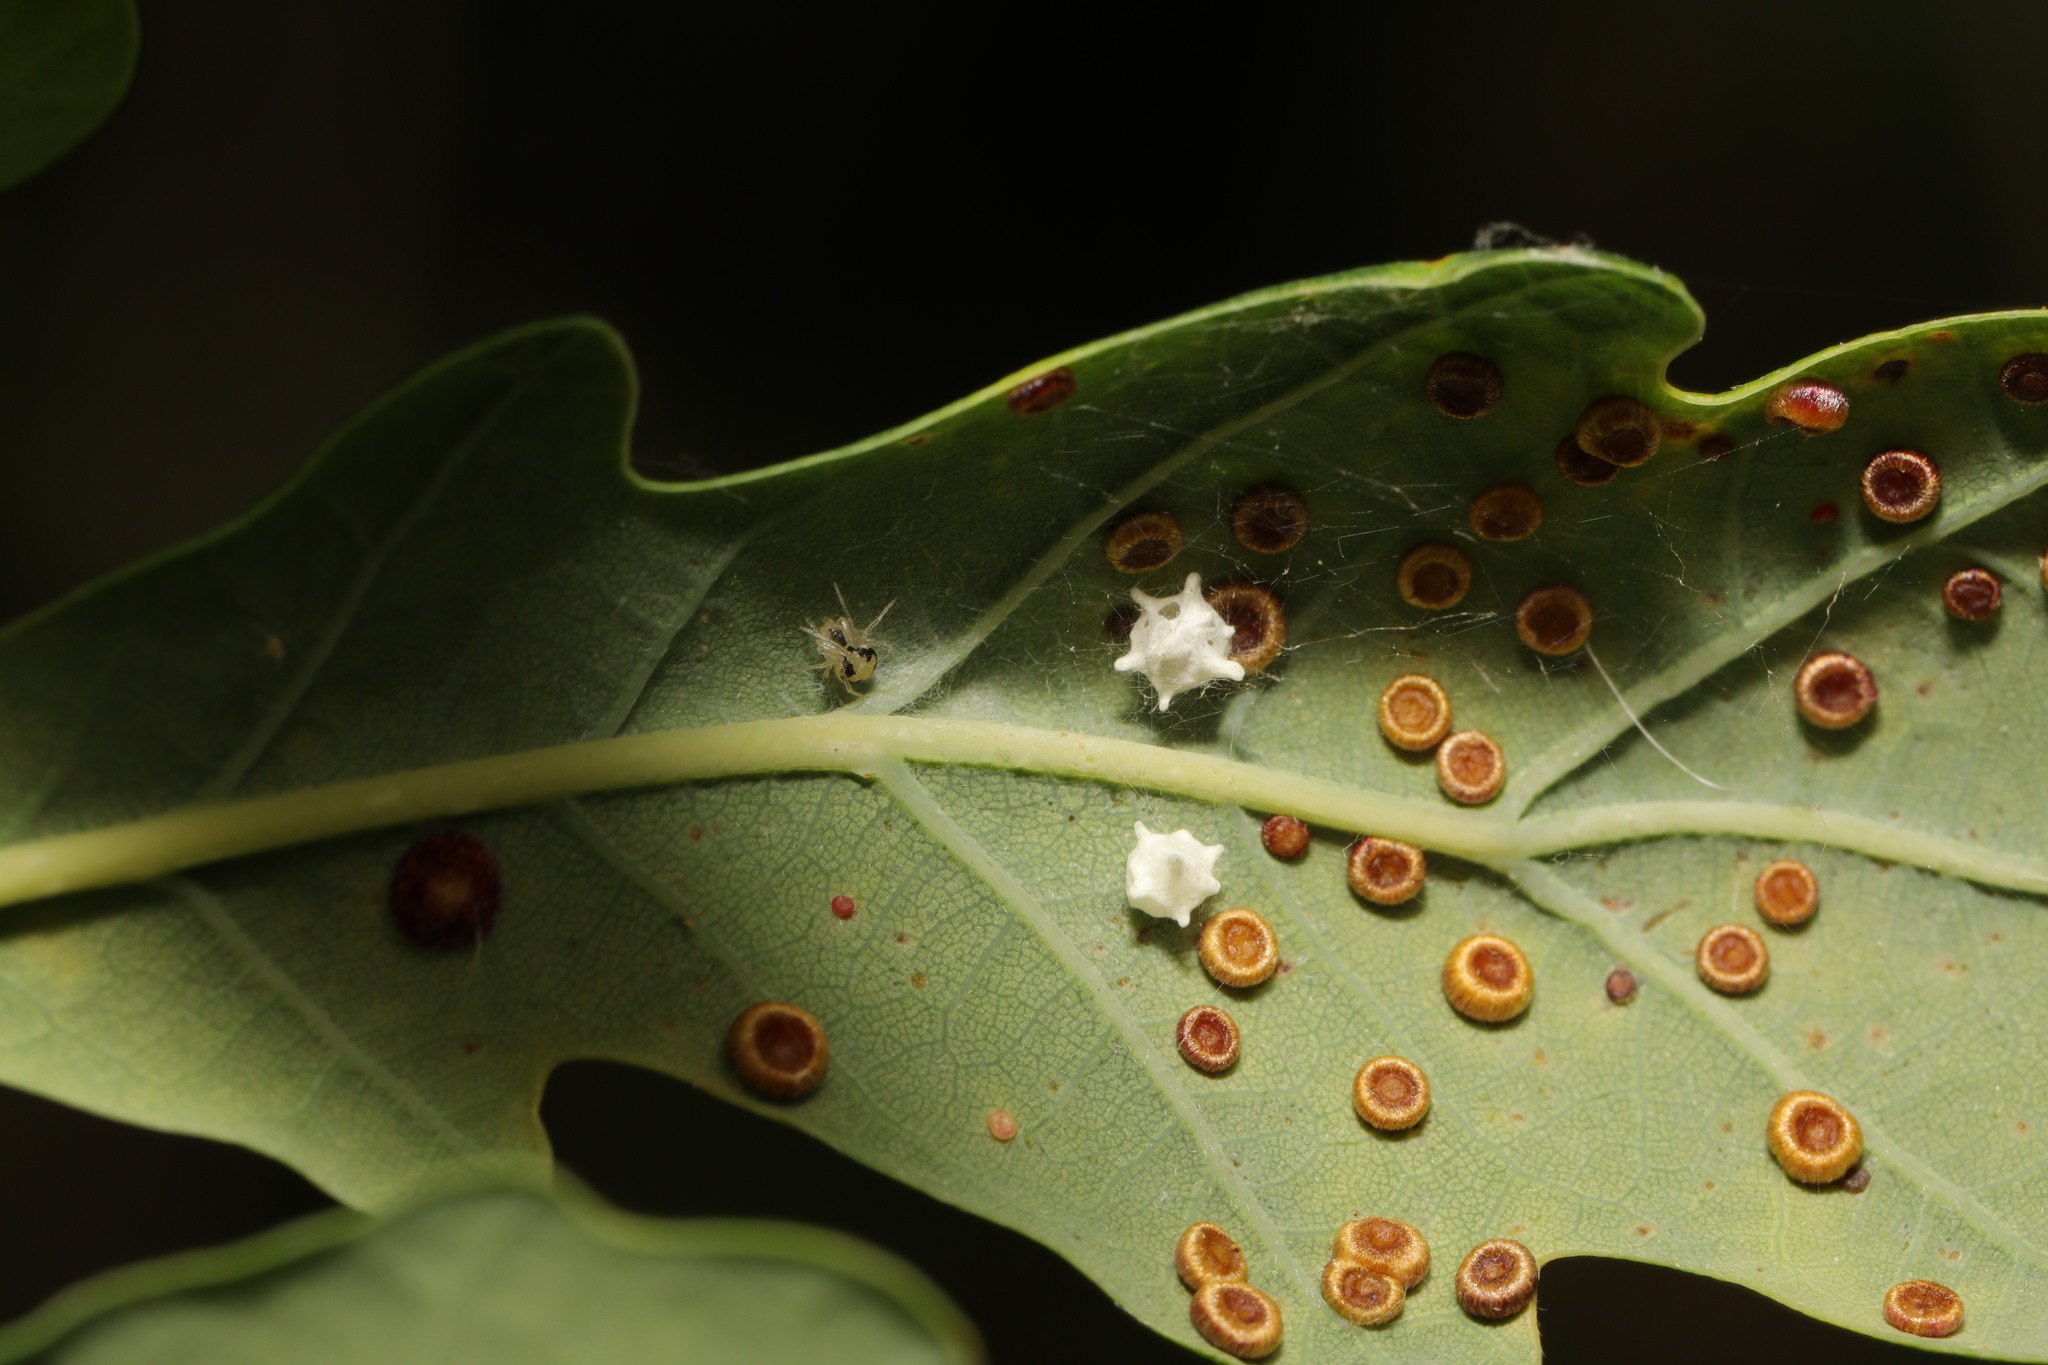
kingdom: Animalia
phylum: Arthropoda
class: Arachnida
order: Araneae
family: Theridiidae
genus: Paidiscura
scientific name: Paidiscura pallens
